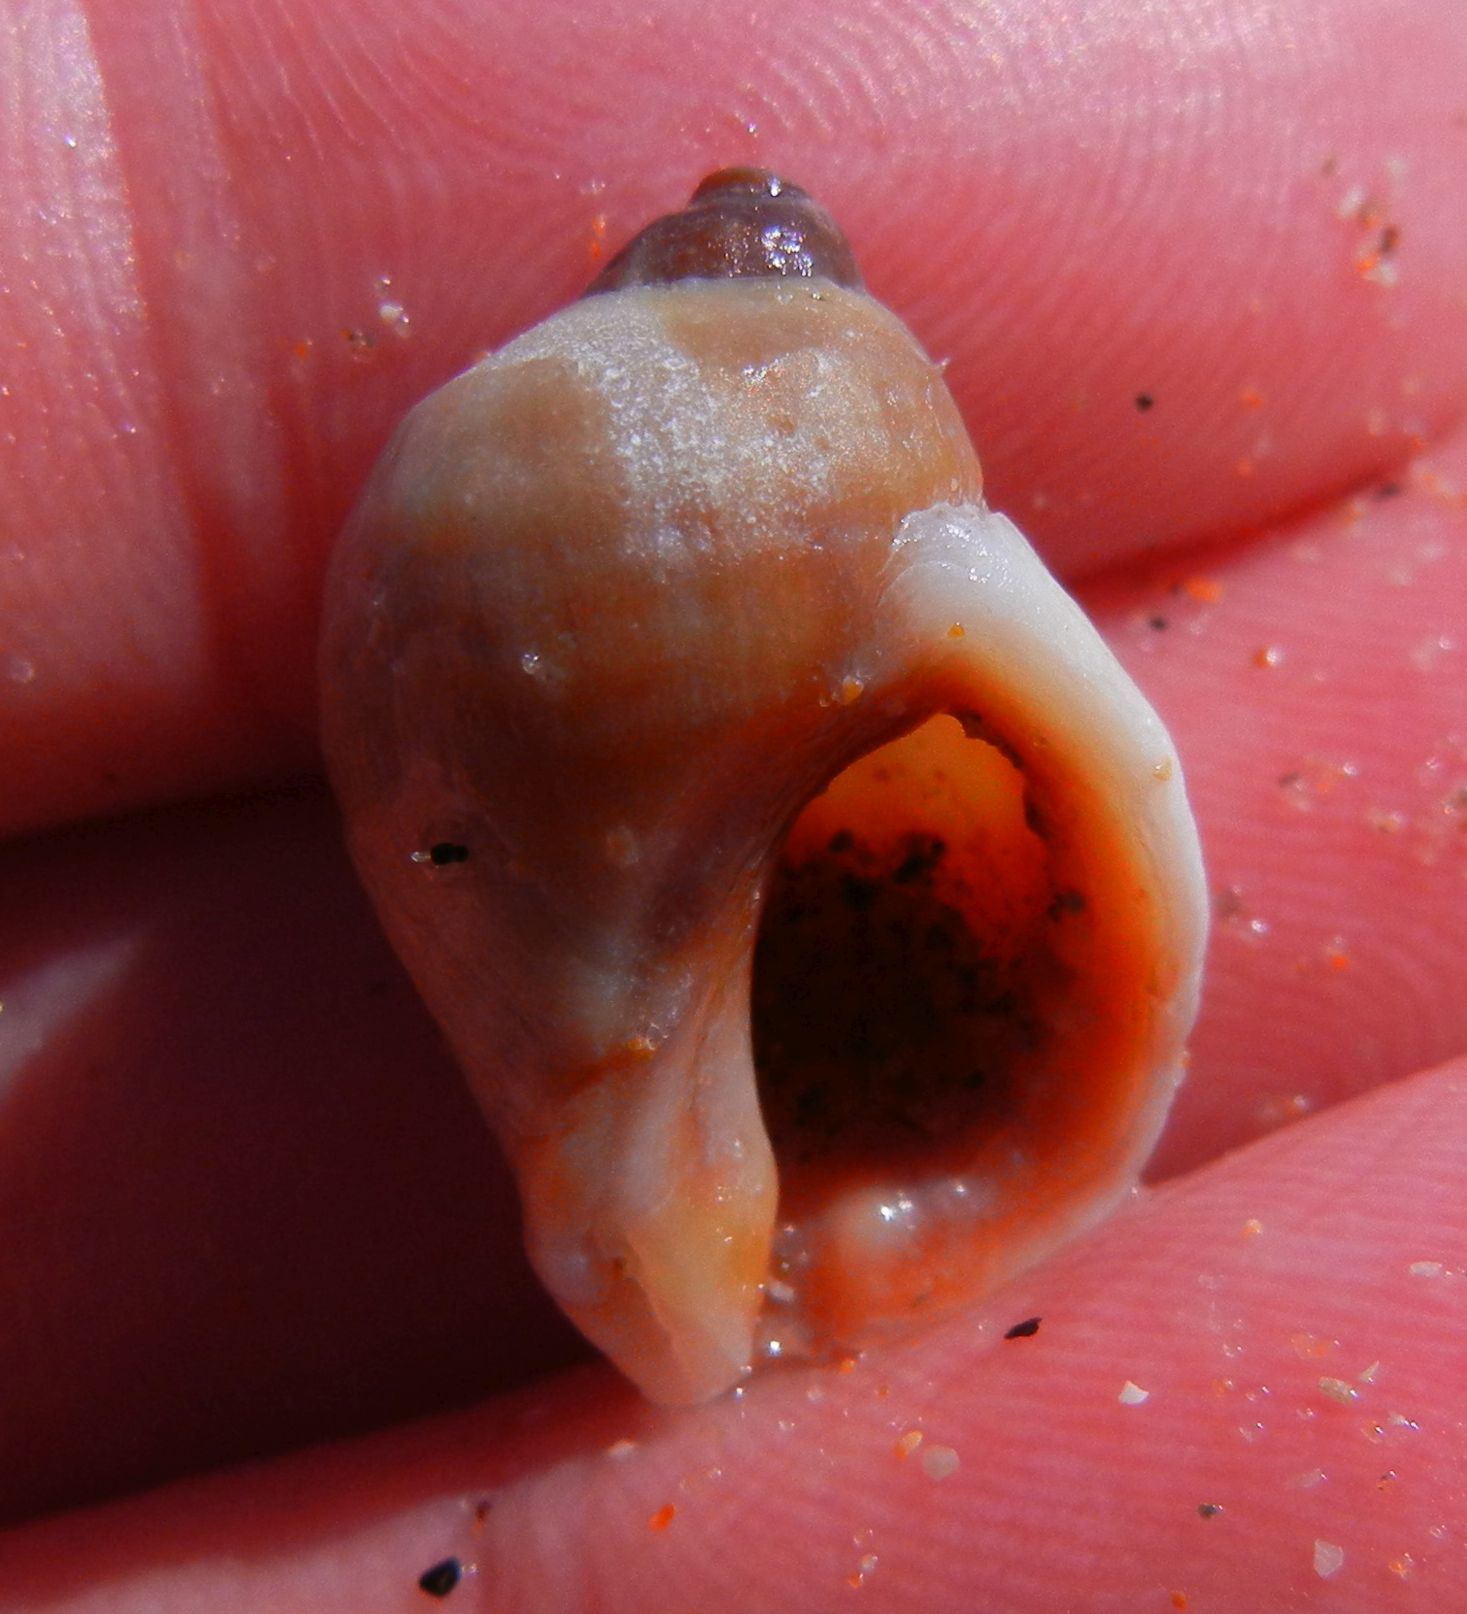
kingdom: Animalia
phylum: Mollusca
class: Gastropoda
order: Neogastropoda
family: Muricidae
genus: Nucella
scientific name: Nucella lapillus
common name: Dog whelk
